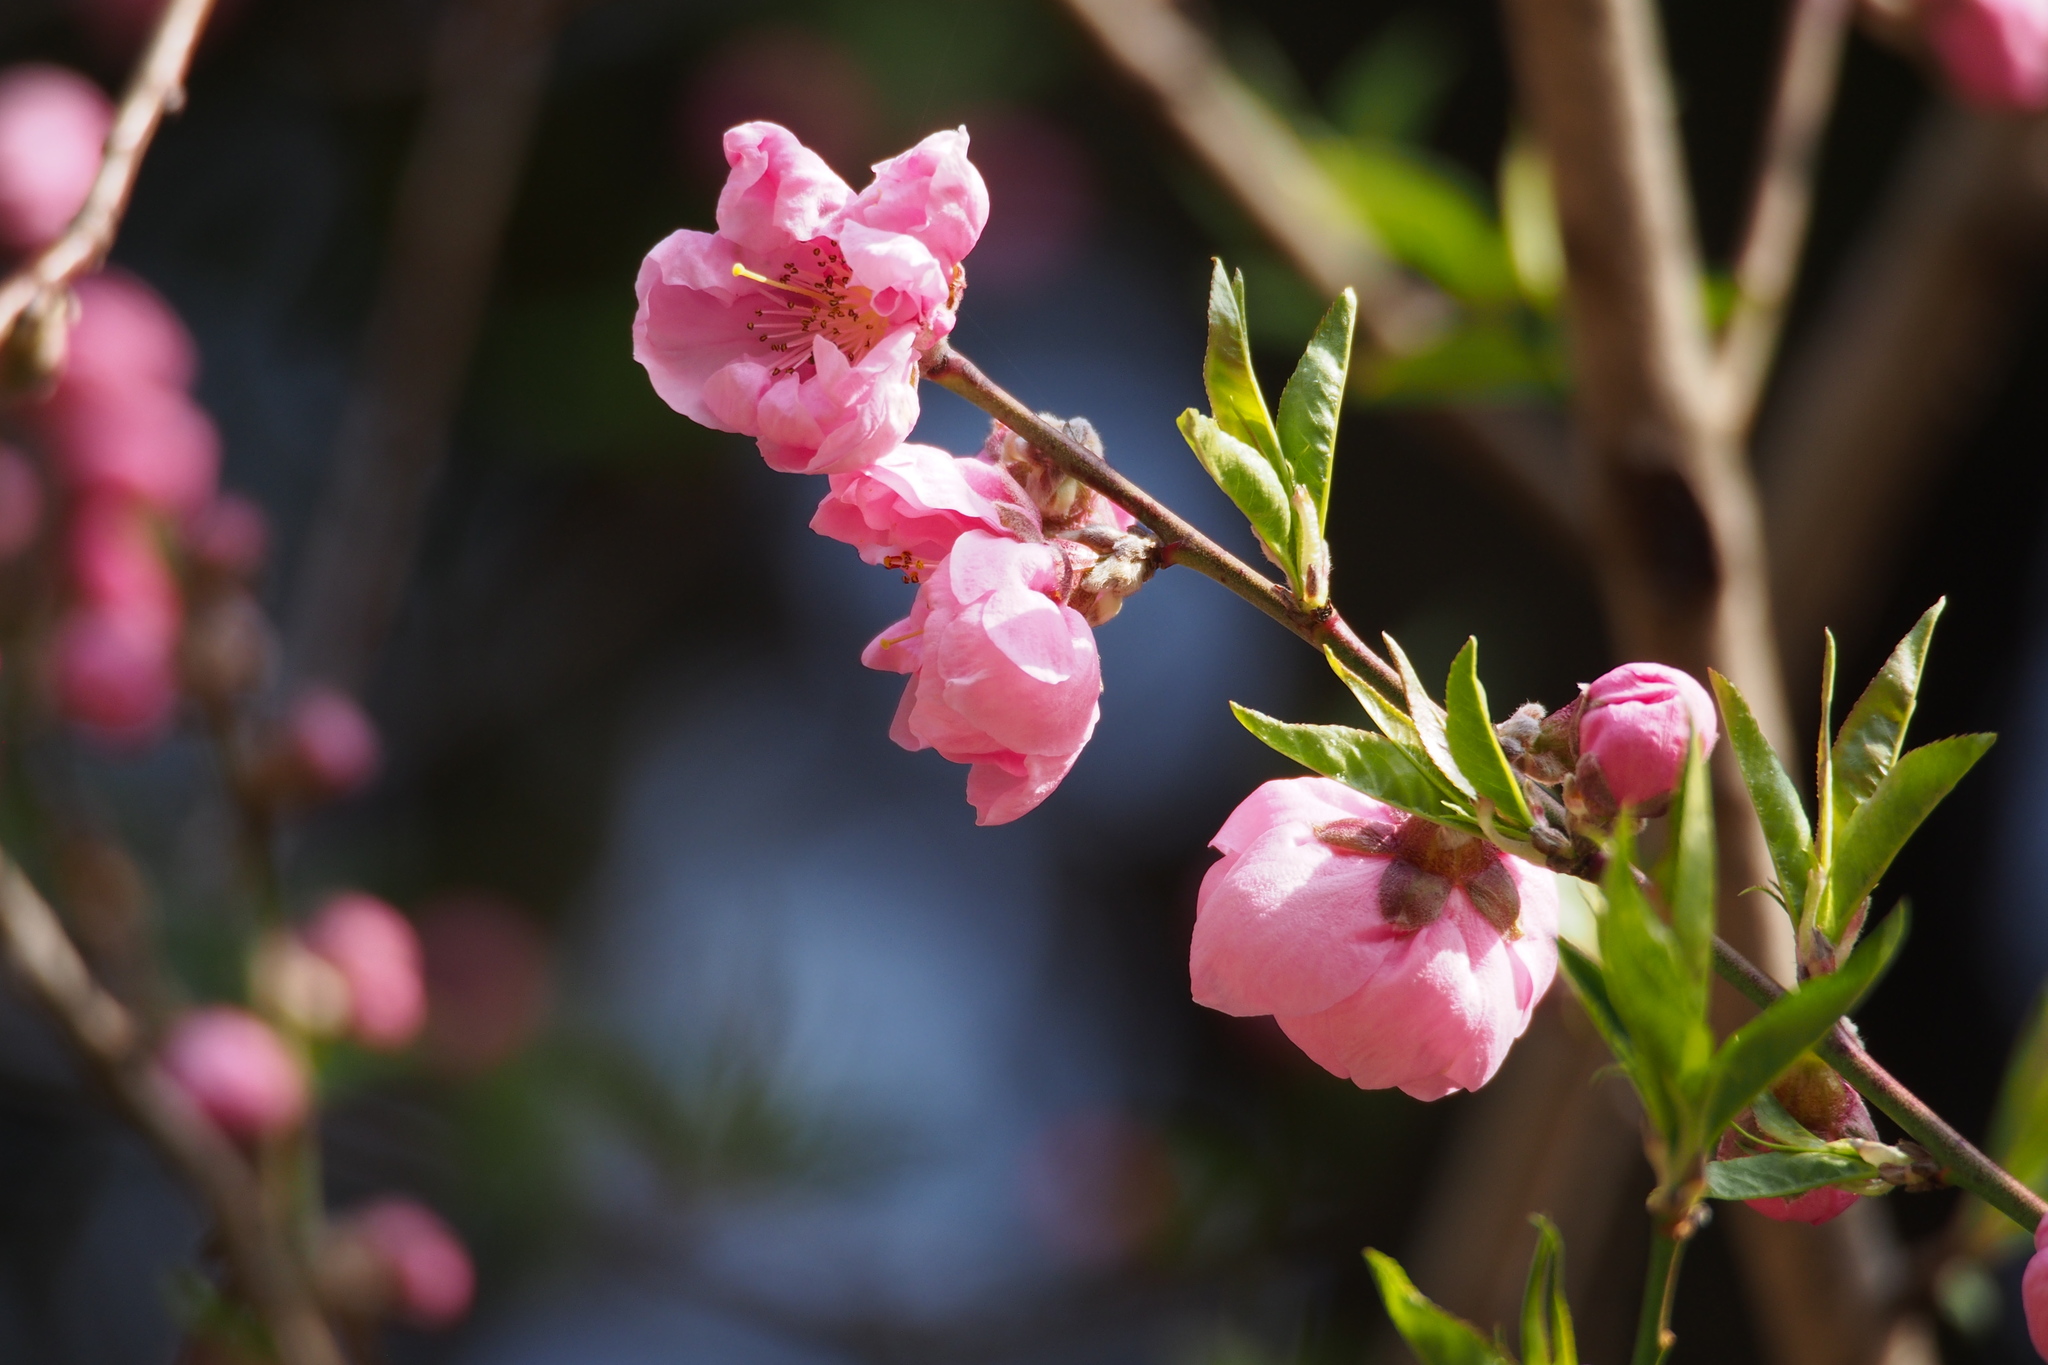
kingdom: Plantae
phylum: Tracheophyta
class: Magnoliopsida
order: Rosales
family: Rosaceae
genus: Prunus
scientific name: Prunus persica
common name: Peach
